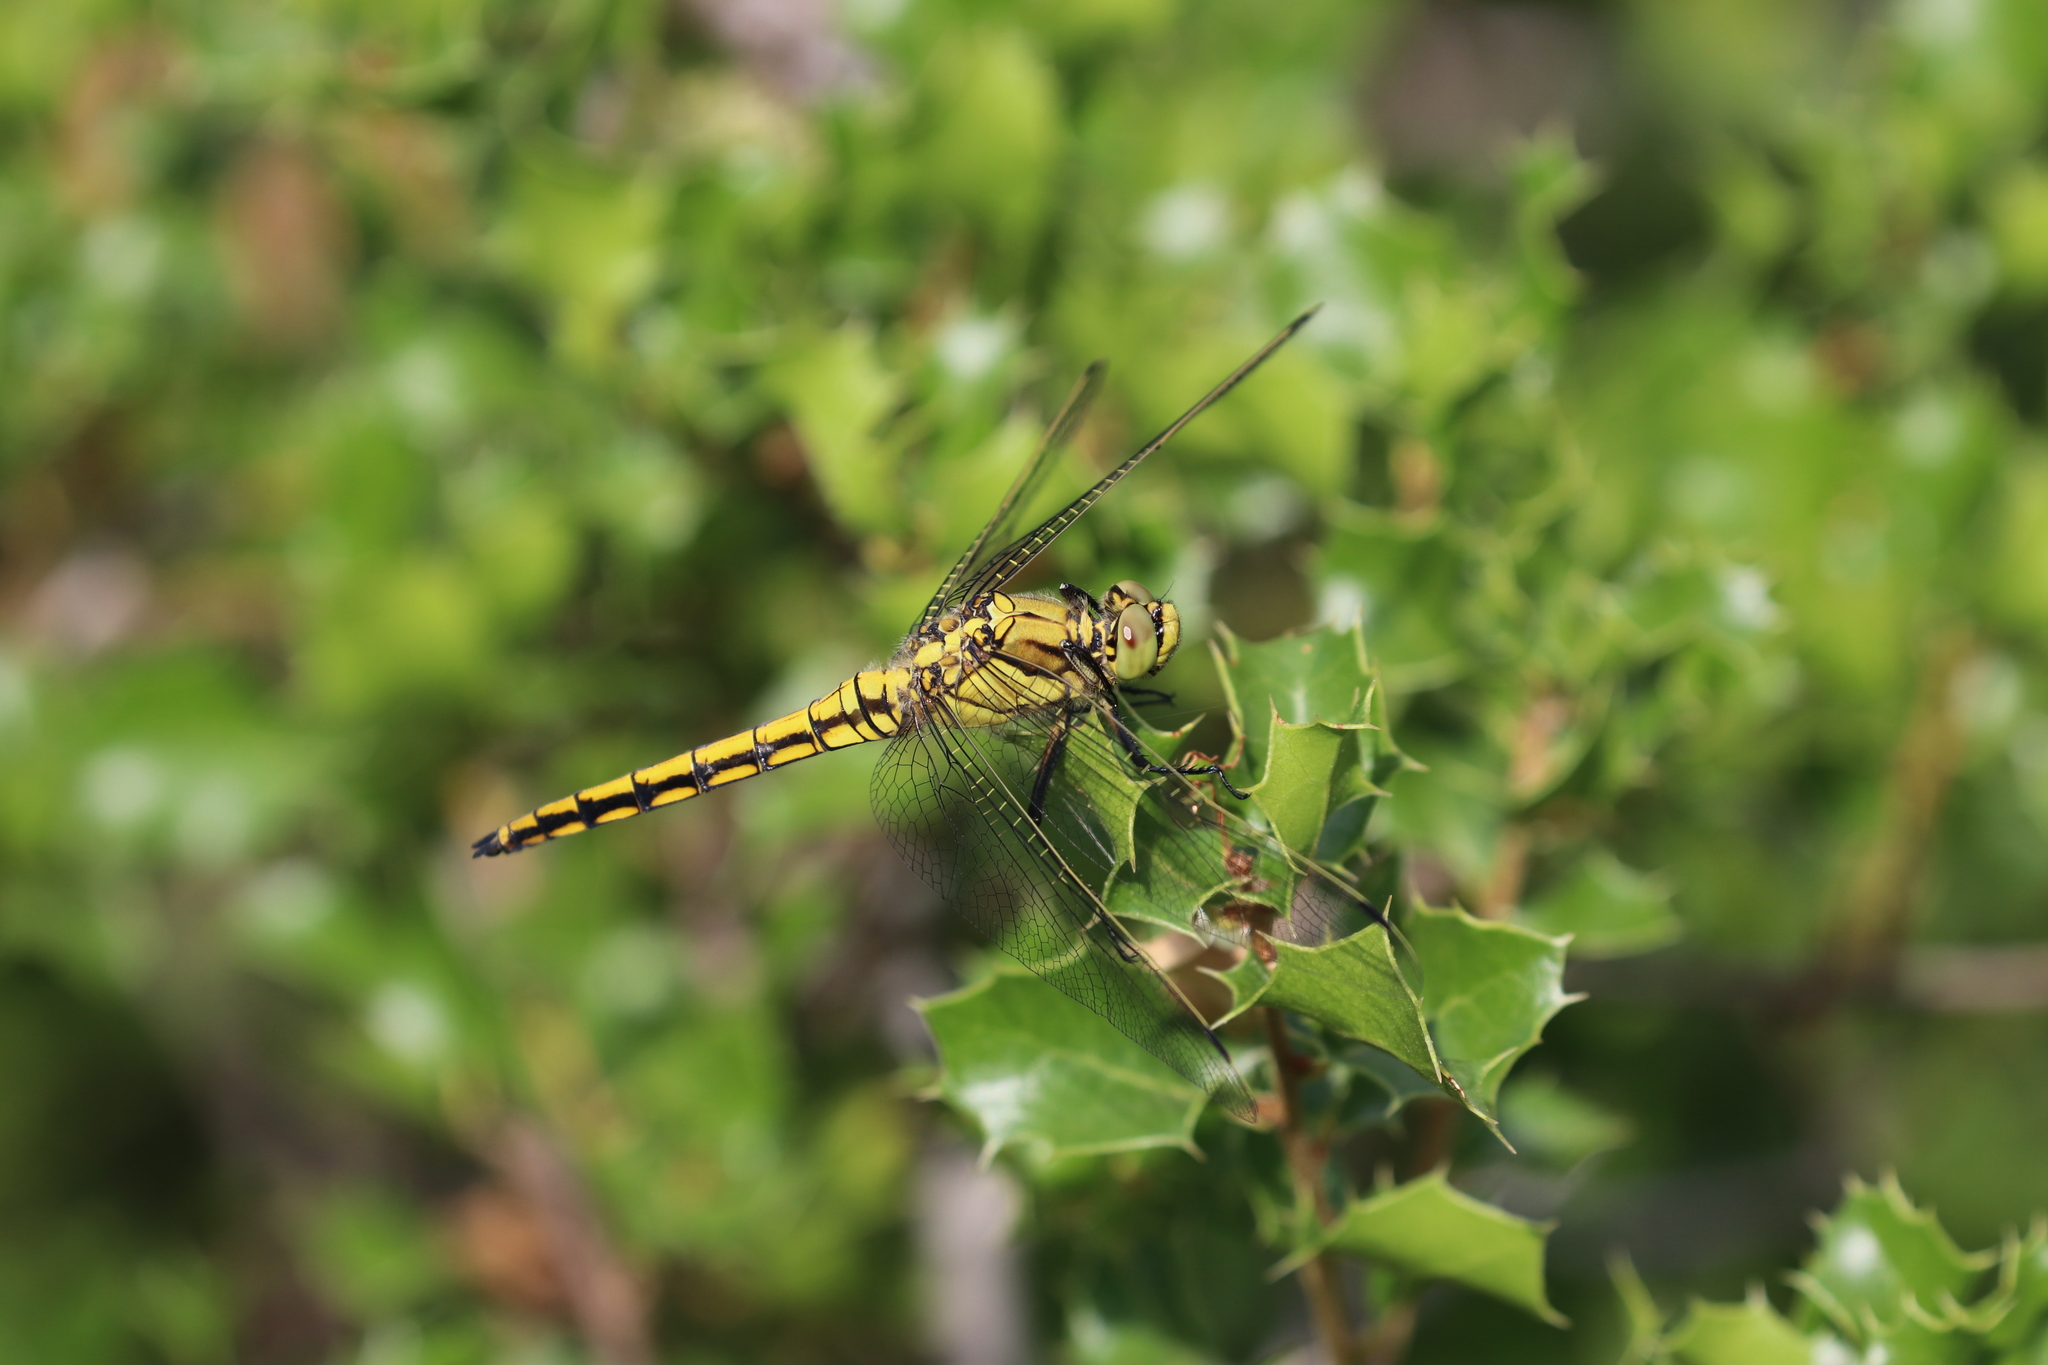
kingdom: Animalia
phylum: Arthropoda
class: Insecta
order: Odonata
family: Libellulidae
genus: Orthetrum
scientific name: Orthetrum cancellatum
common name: Black-tailed skimmer
